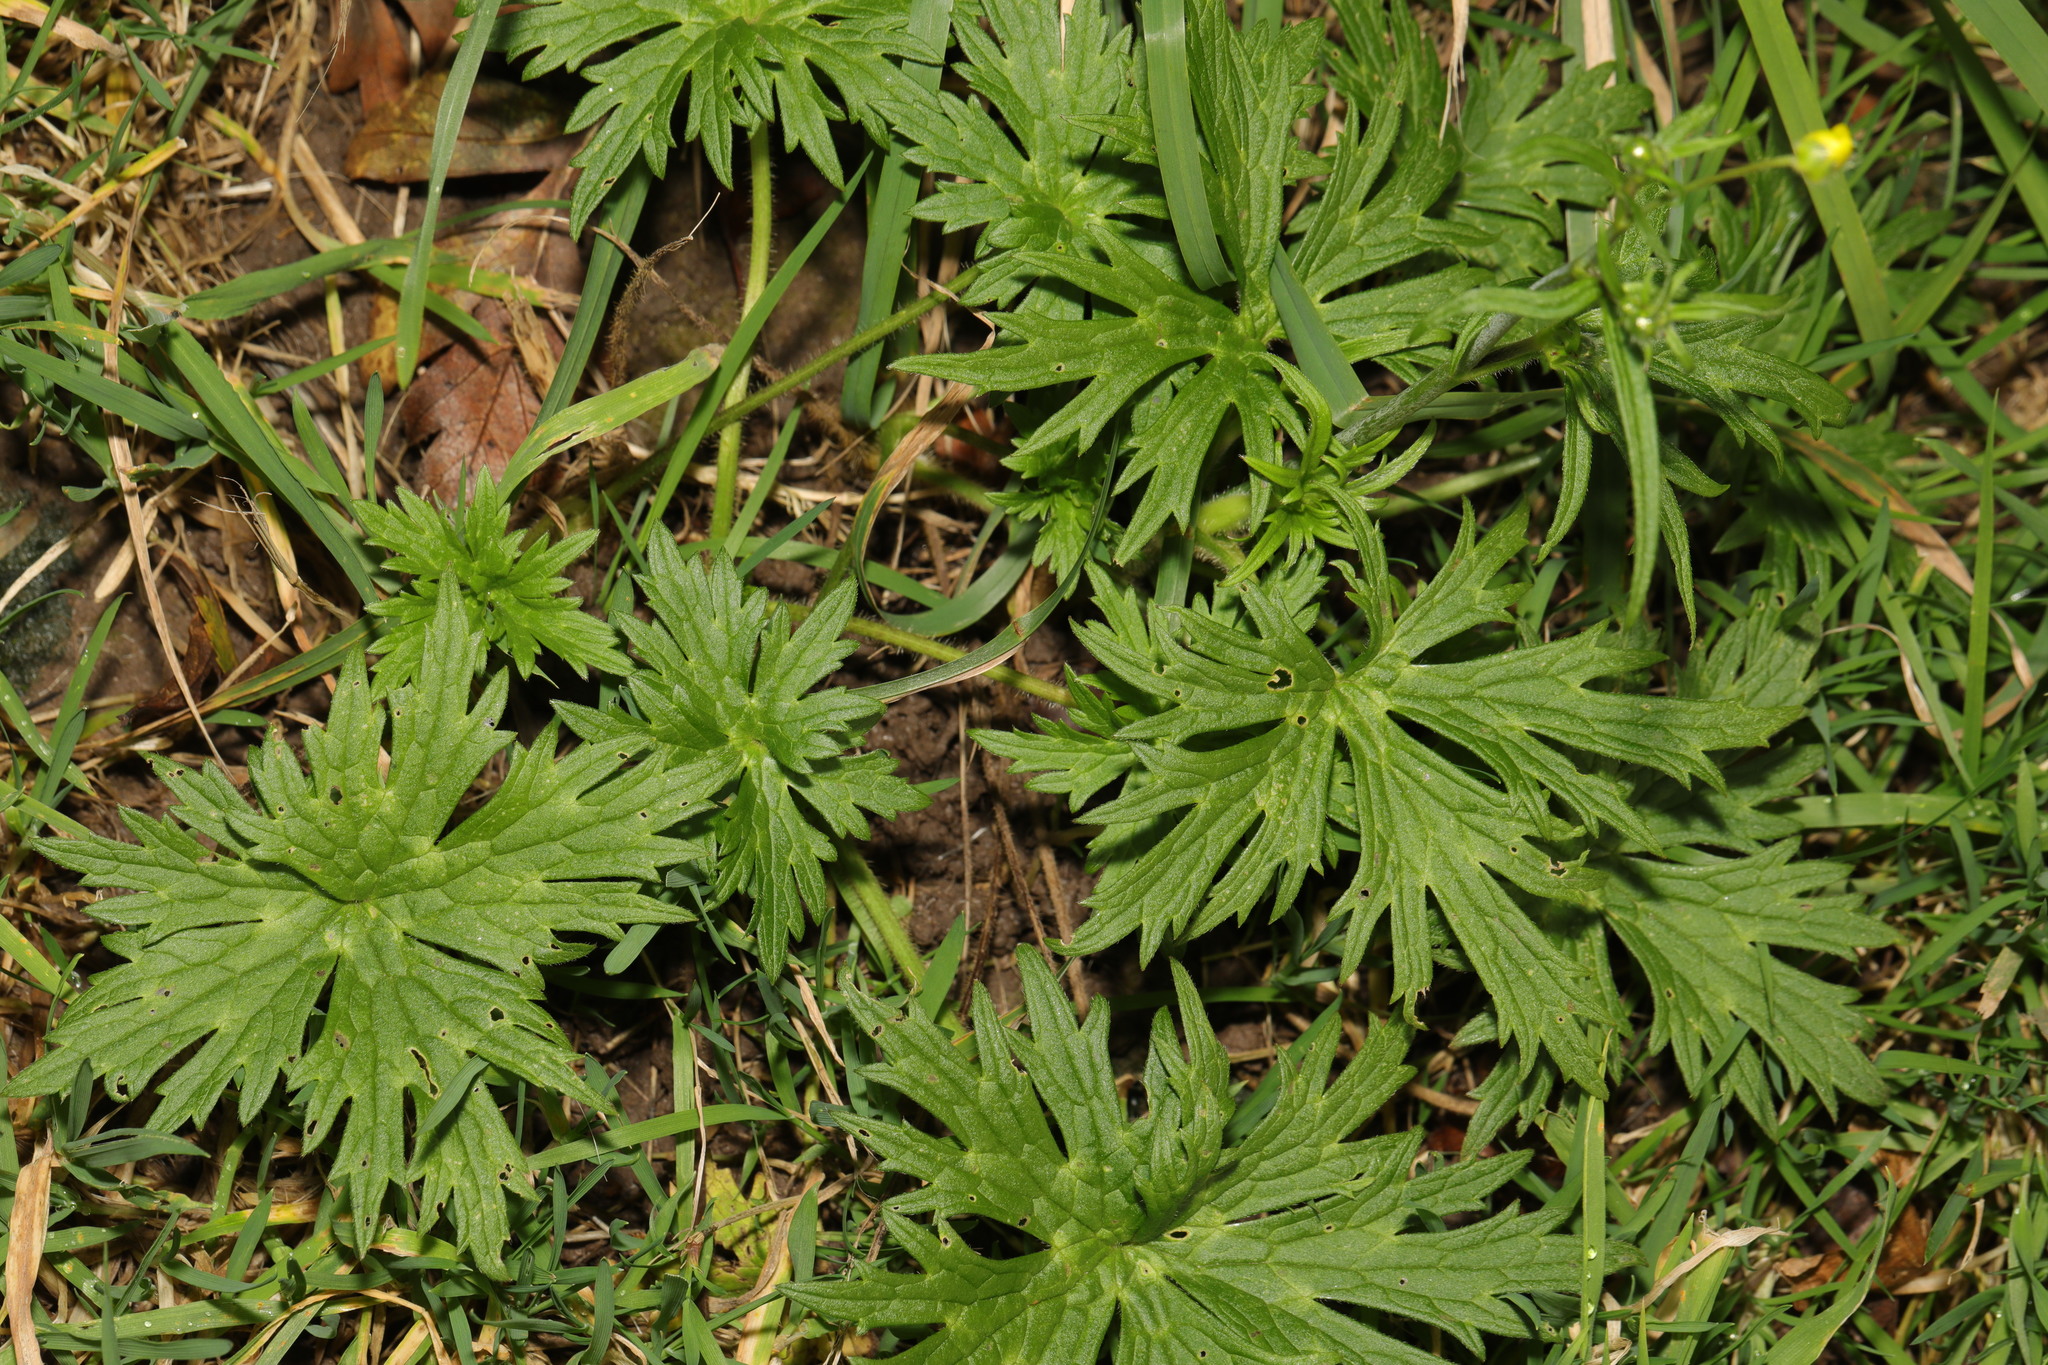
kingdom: Plantae
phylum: Tracheophyta
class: Magnoliopsida
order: Ranunculales
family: Ranunculaceae
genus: Ranunculus
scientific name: Ranunculus acris
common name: Meadow buttercup
